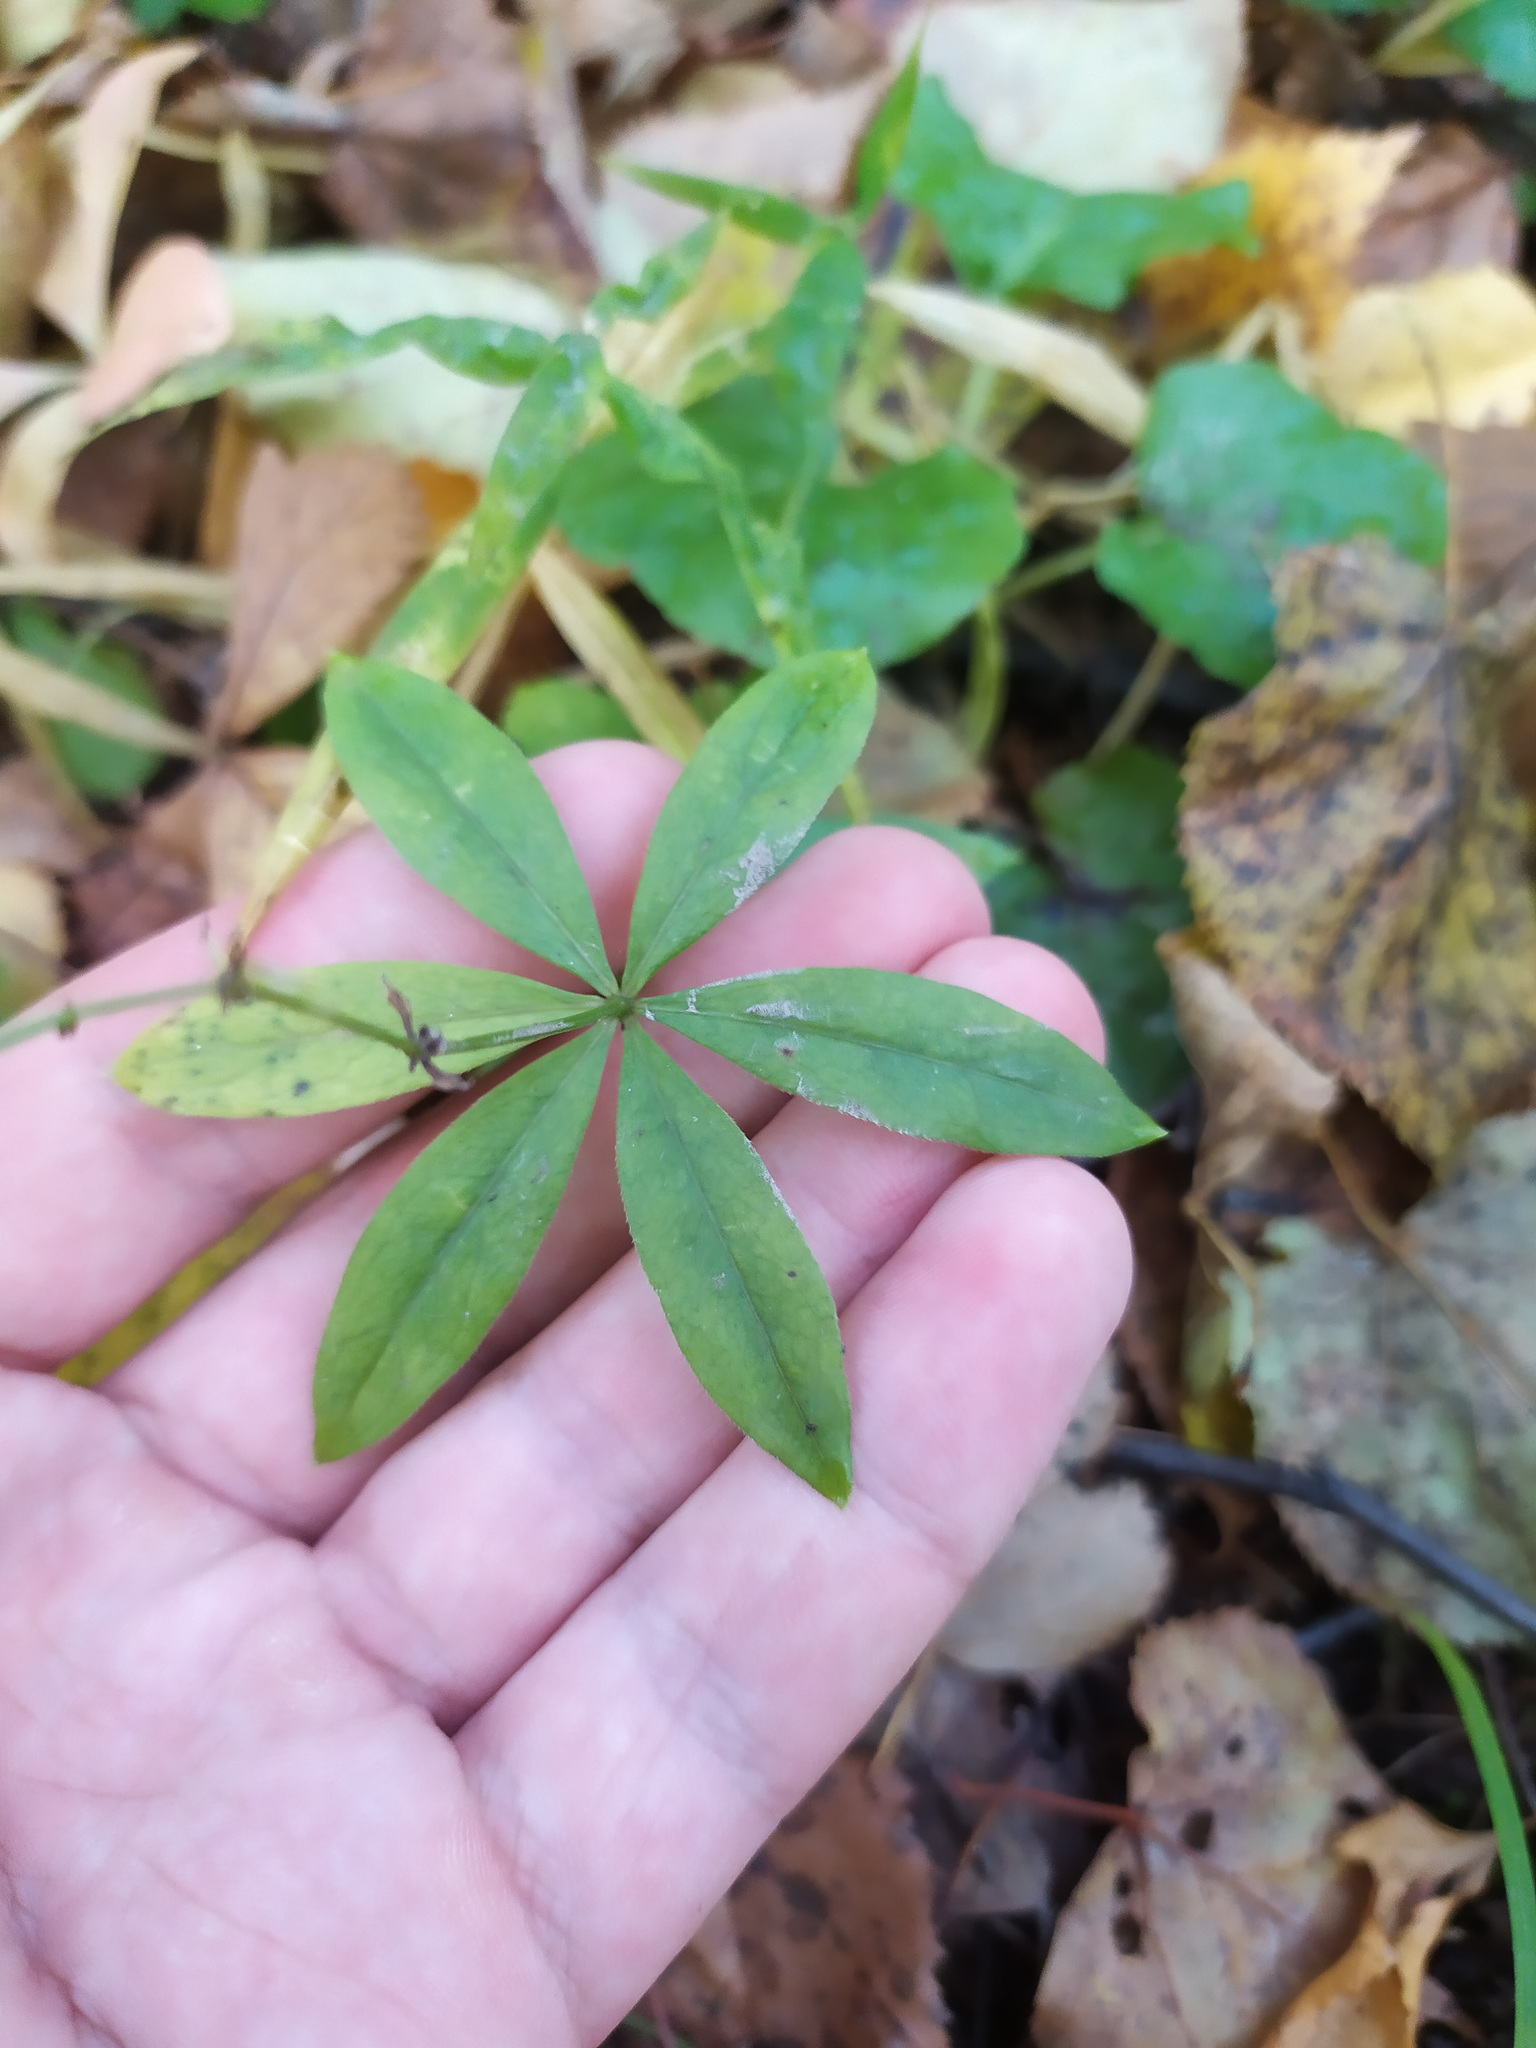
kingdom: Plantae
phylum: Tracheophyta
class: Magnoliopsida
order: Gentianales
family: Rubiaceae
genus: Galium
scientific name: Galium odoratum
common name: Sweet woodruff
